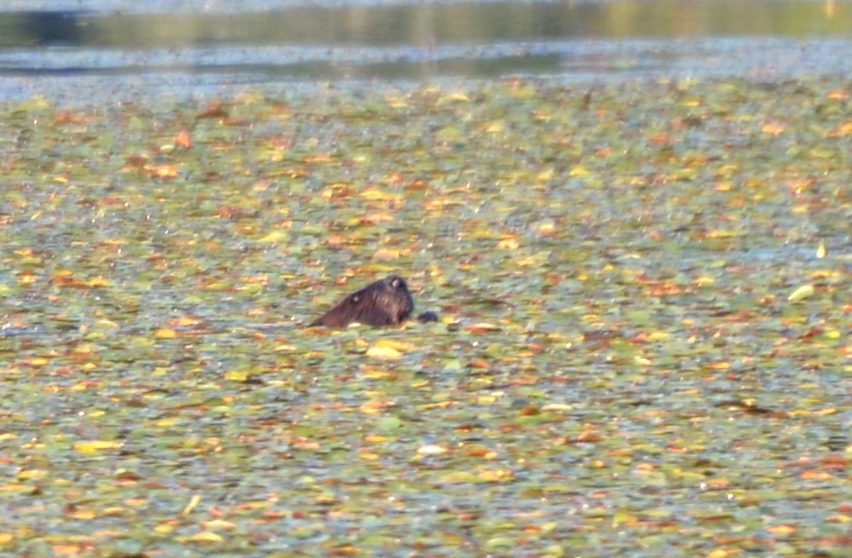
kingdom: Animalia
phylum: Chordata
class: Mammalia
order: Rodentia
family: Castoridae
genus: Castor
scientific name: Castor canadensis
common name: American beaver
